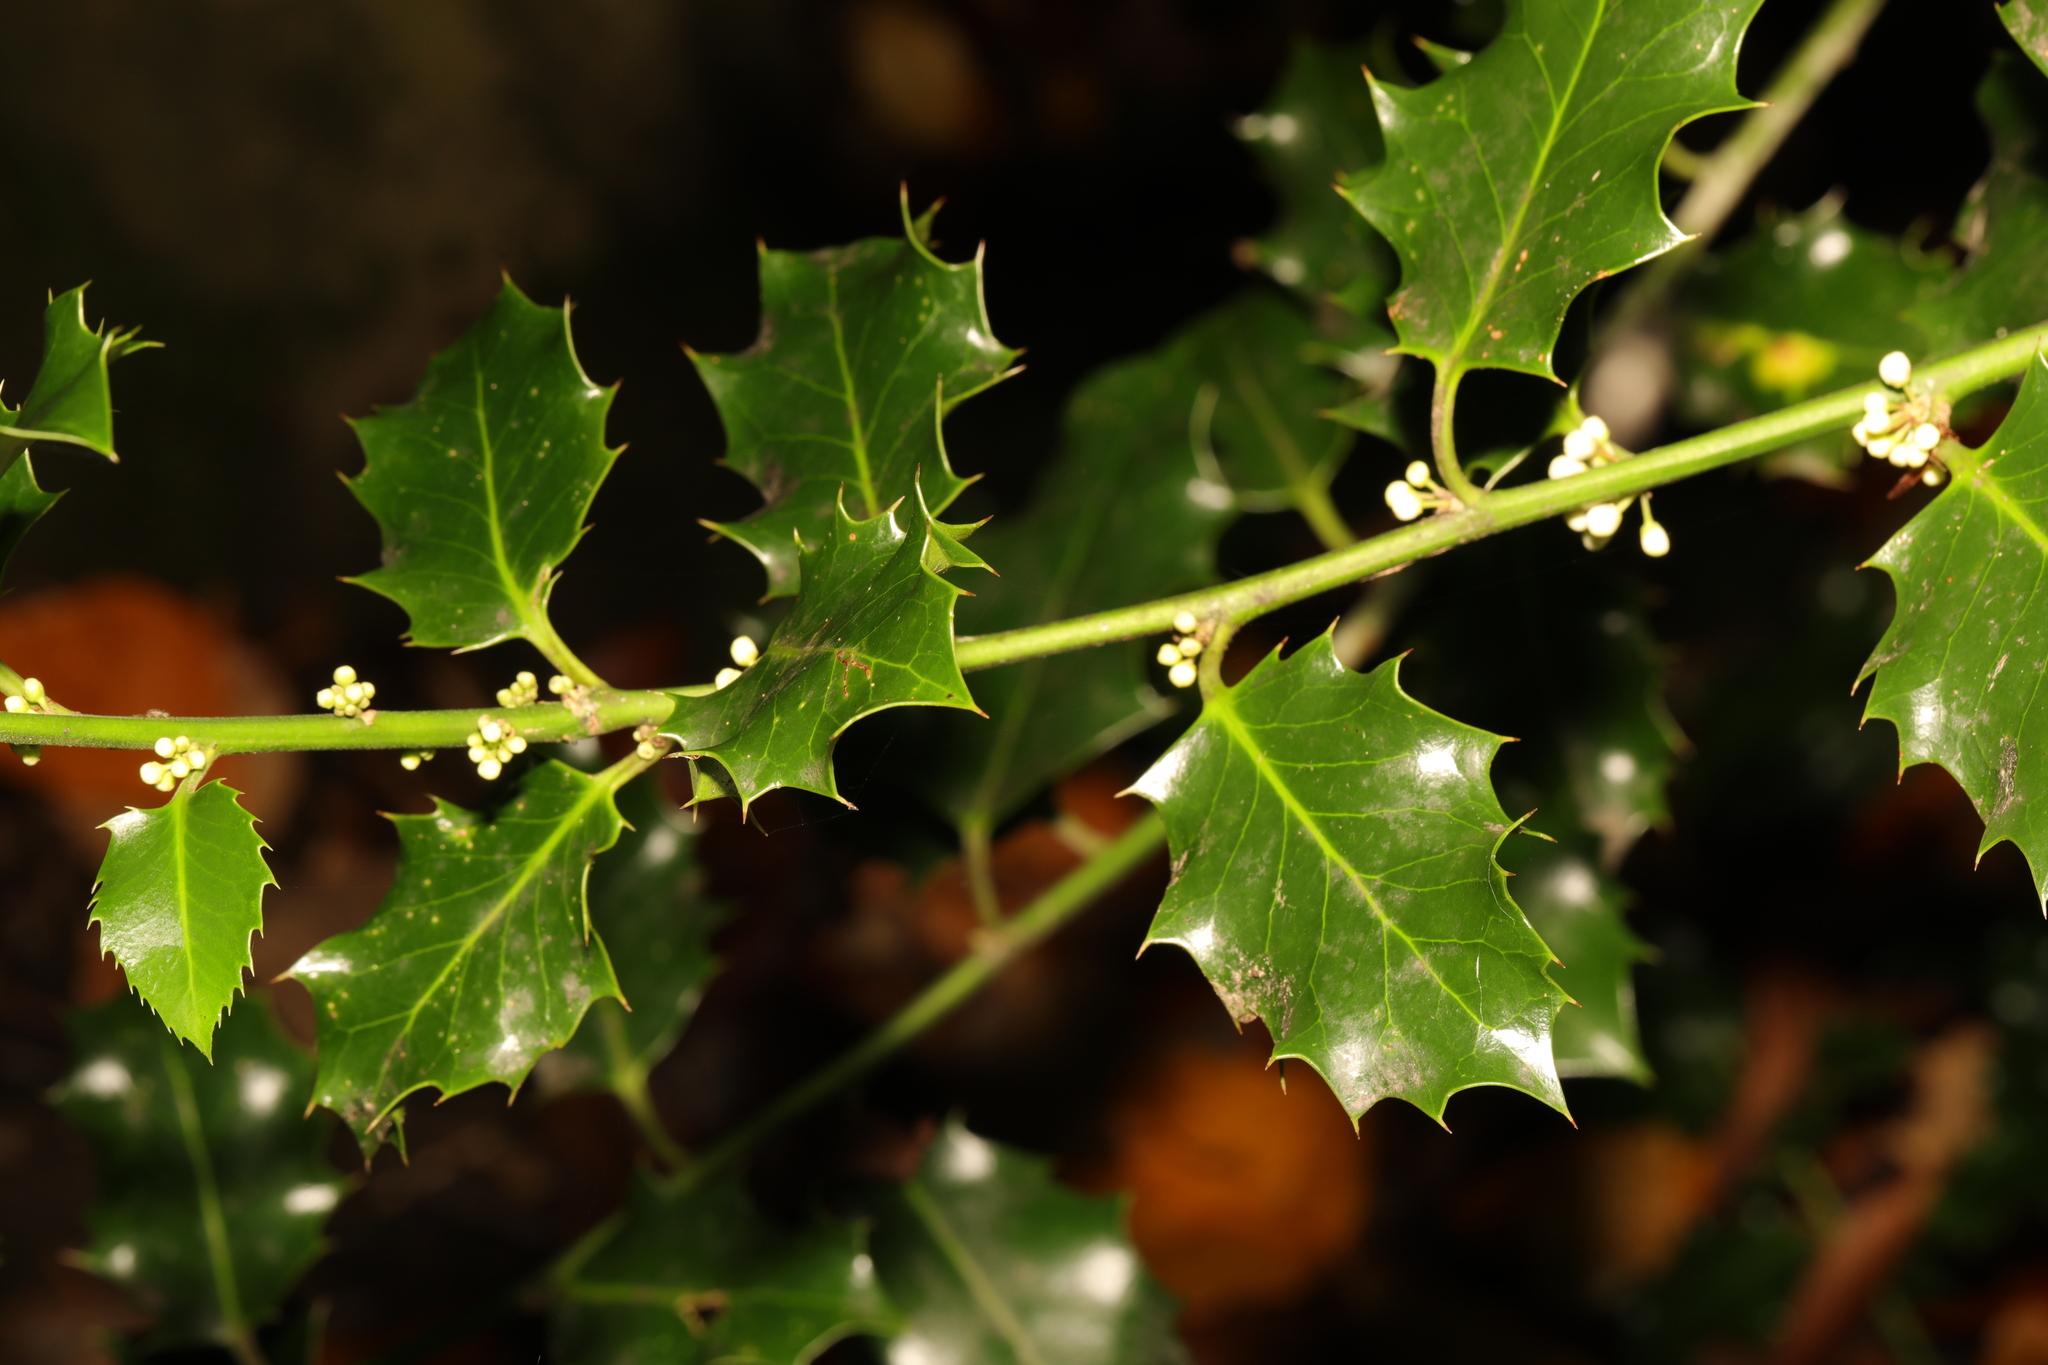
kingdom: Plantae
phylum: Tracheophyta
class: Magnoliopsida
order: Aquifoliales
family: Aquifoliaceae
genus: Ilex
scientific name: Ilex aquifolium
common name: English holly
